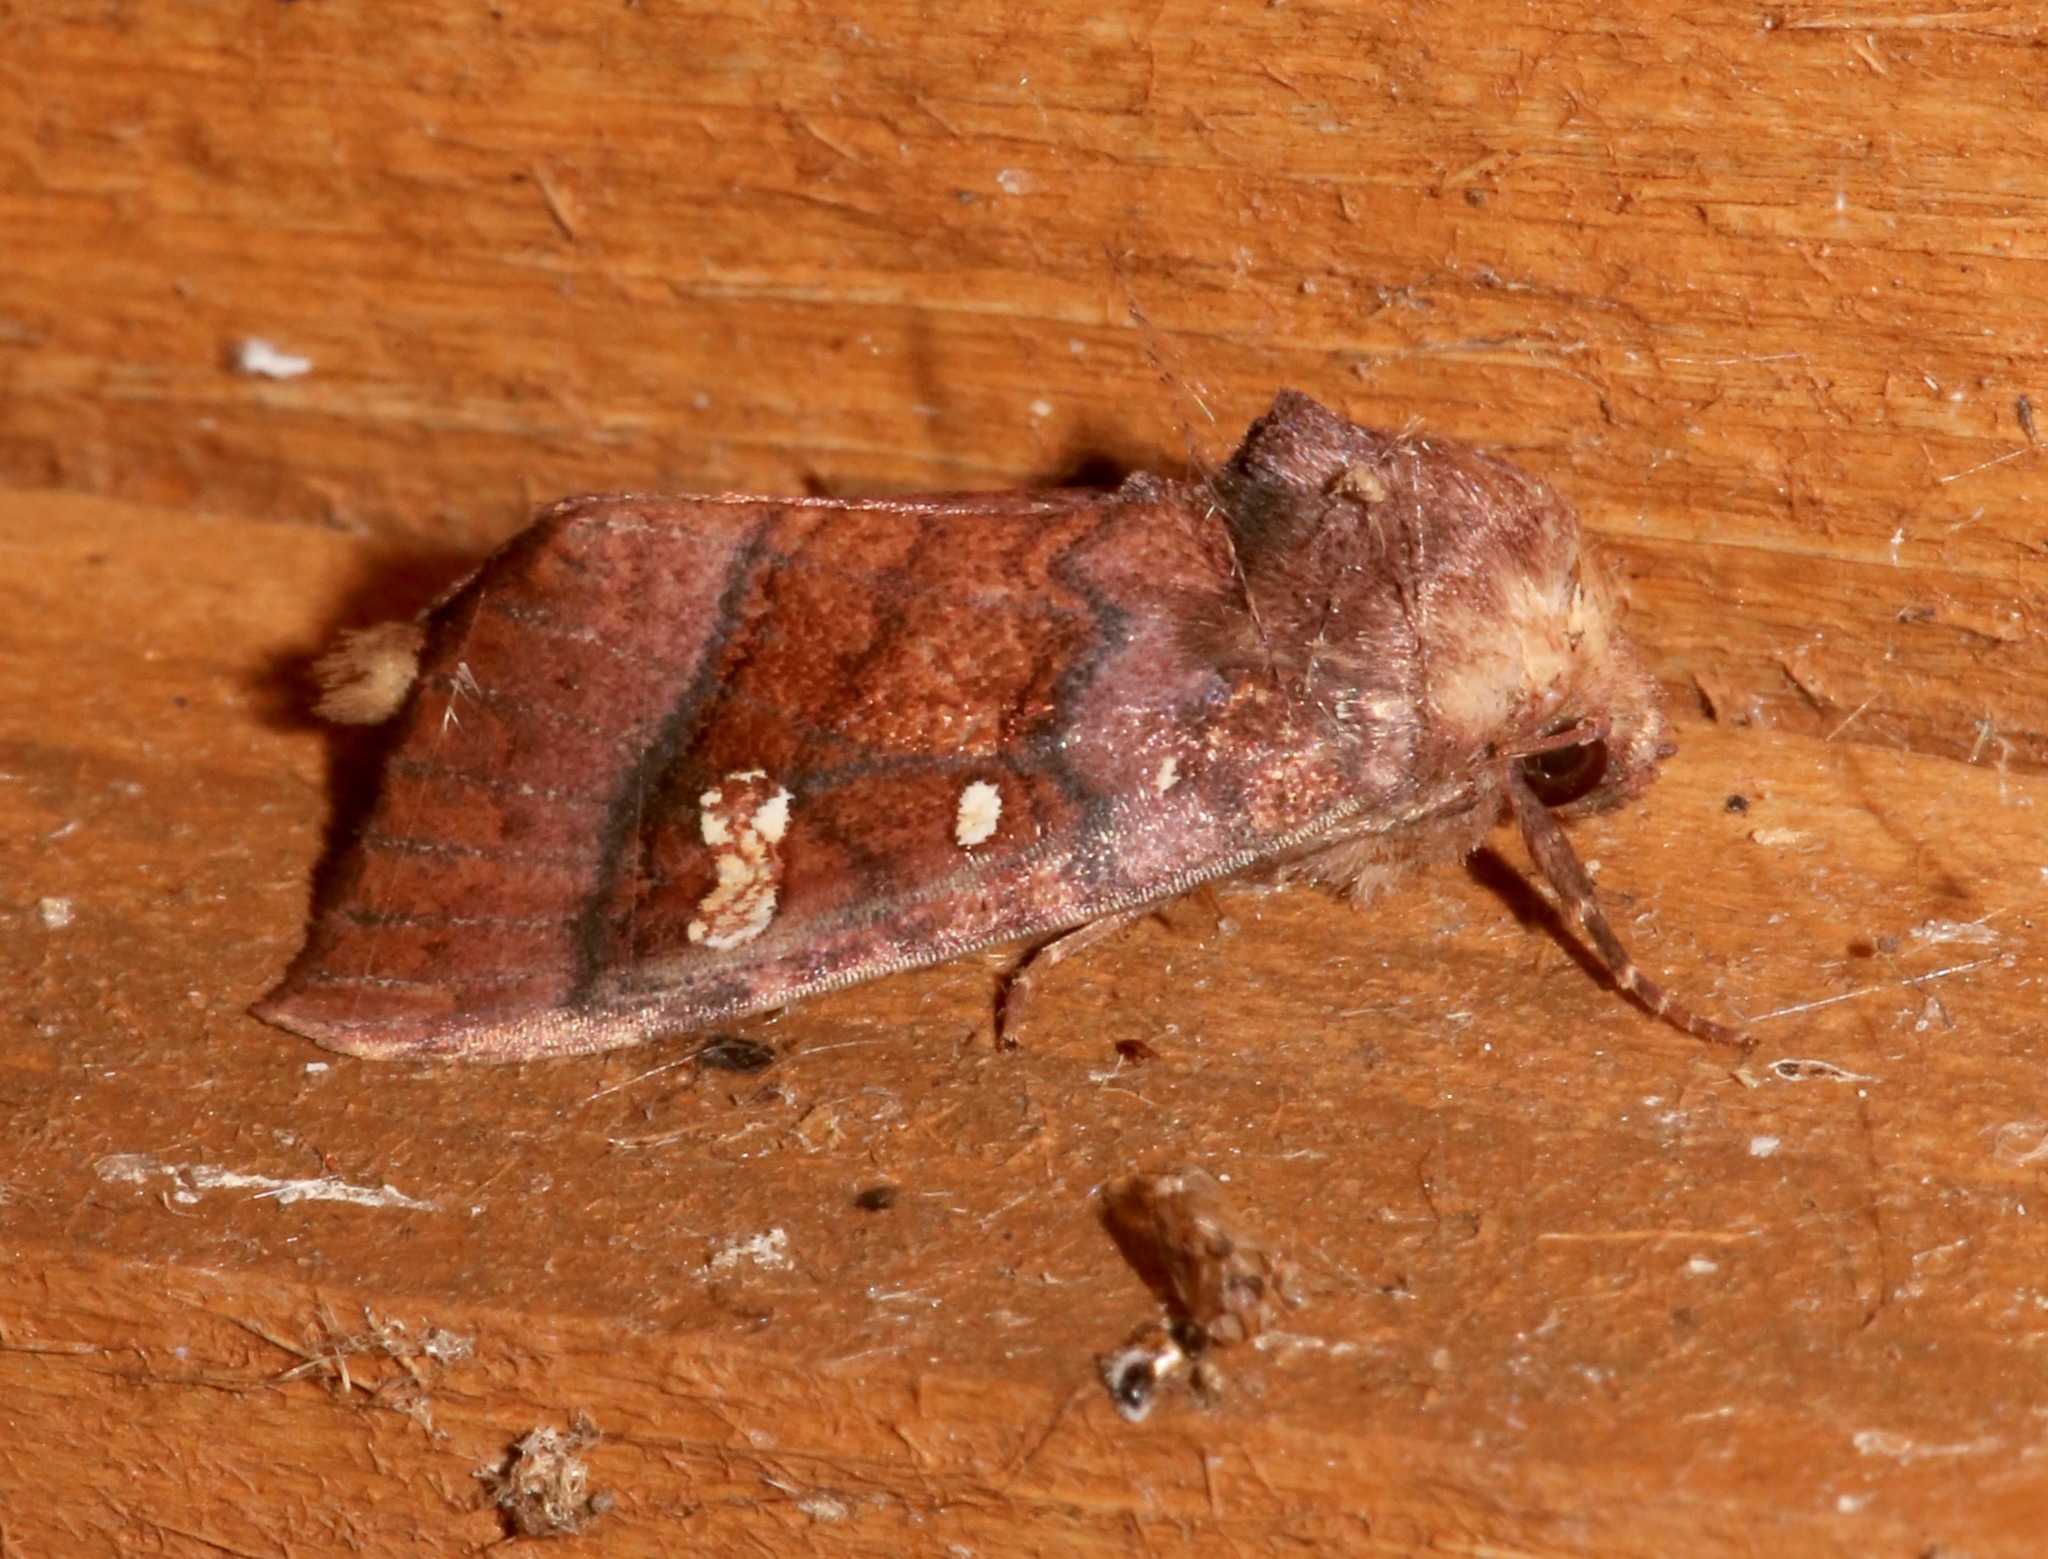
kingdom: Animalia
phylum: Arthropoda
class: Insecta
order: Lepidoptera
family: Noctuidae
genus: Parapamea
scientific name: Parapamea buffaloensis
